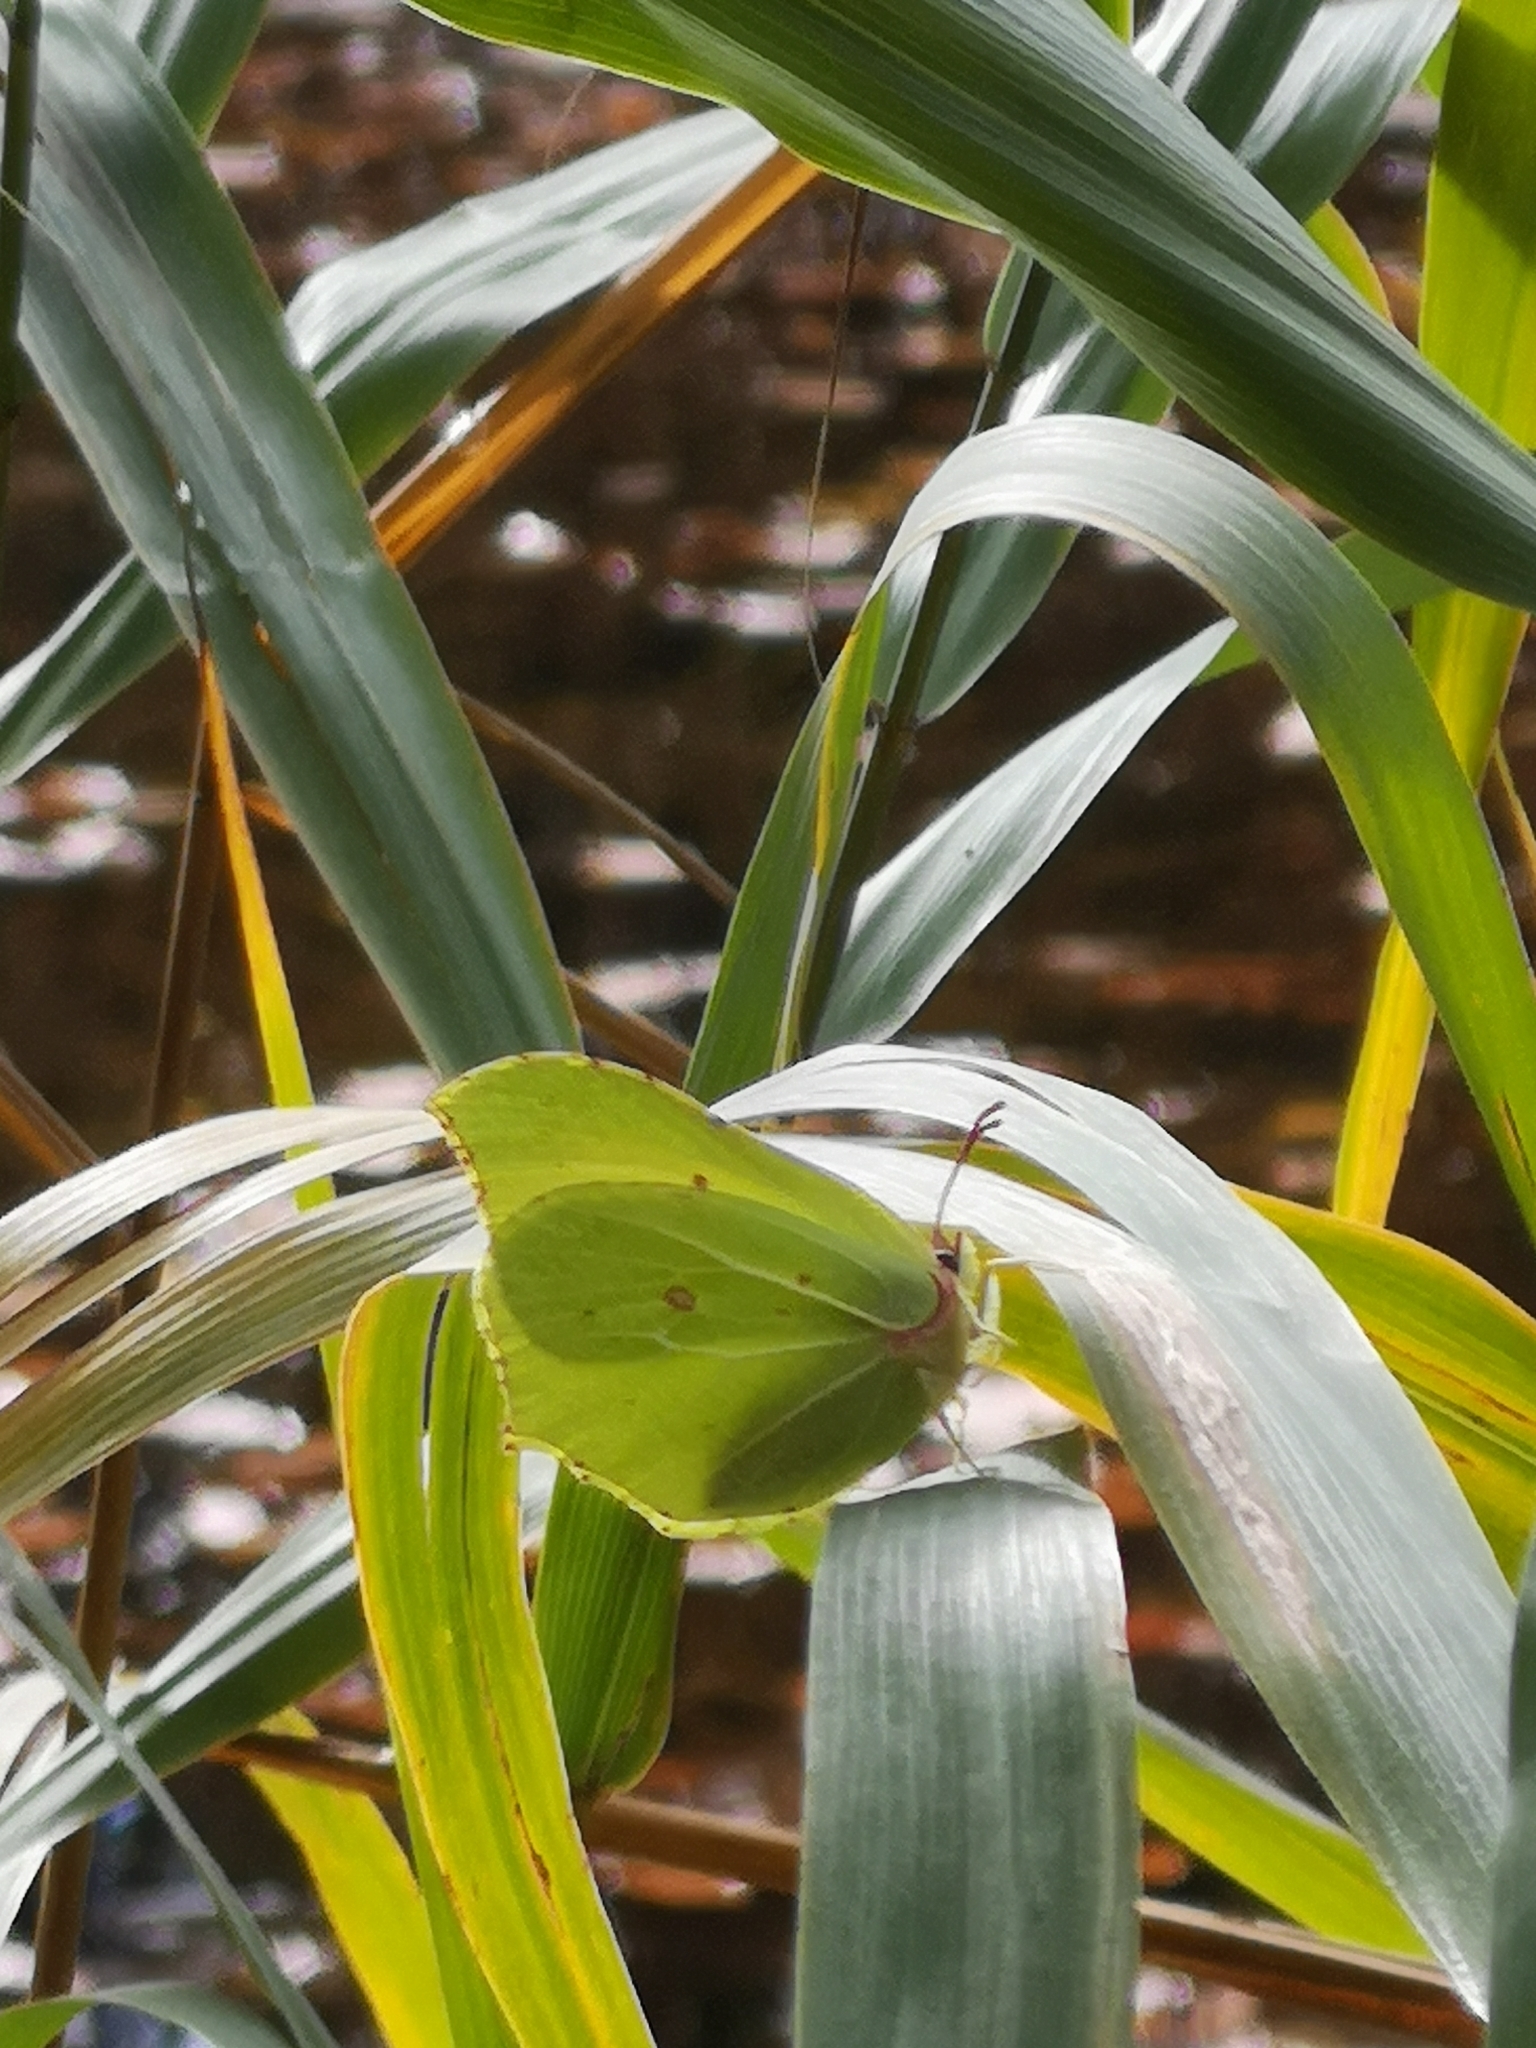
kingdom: Animalia
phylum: Arthropoda
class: Insecta
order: Lepidoptera
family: Pieridae
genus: Gonepteryx
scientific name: Gonepteryx rhamni
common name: Brimstone
